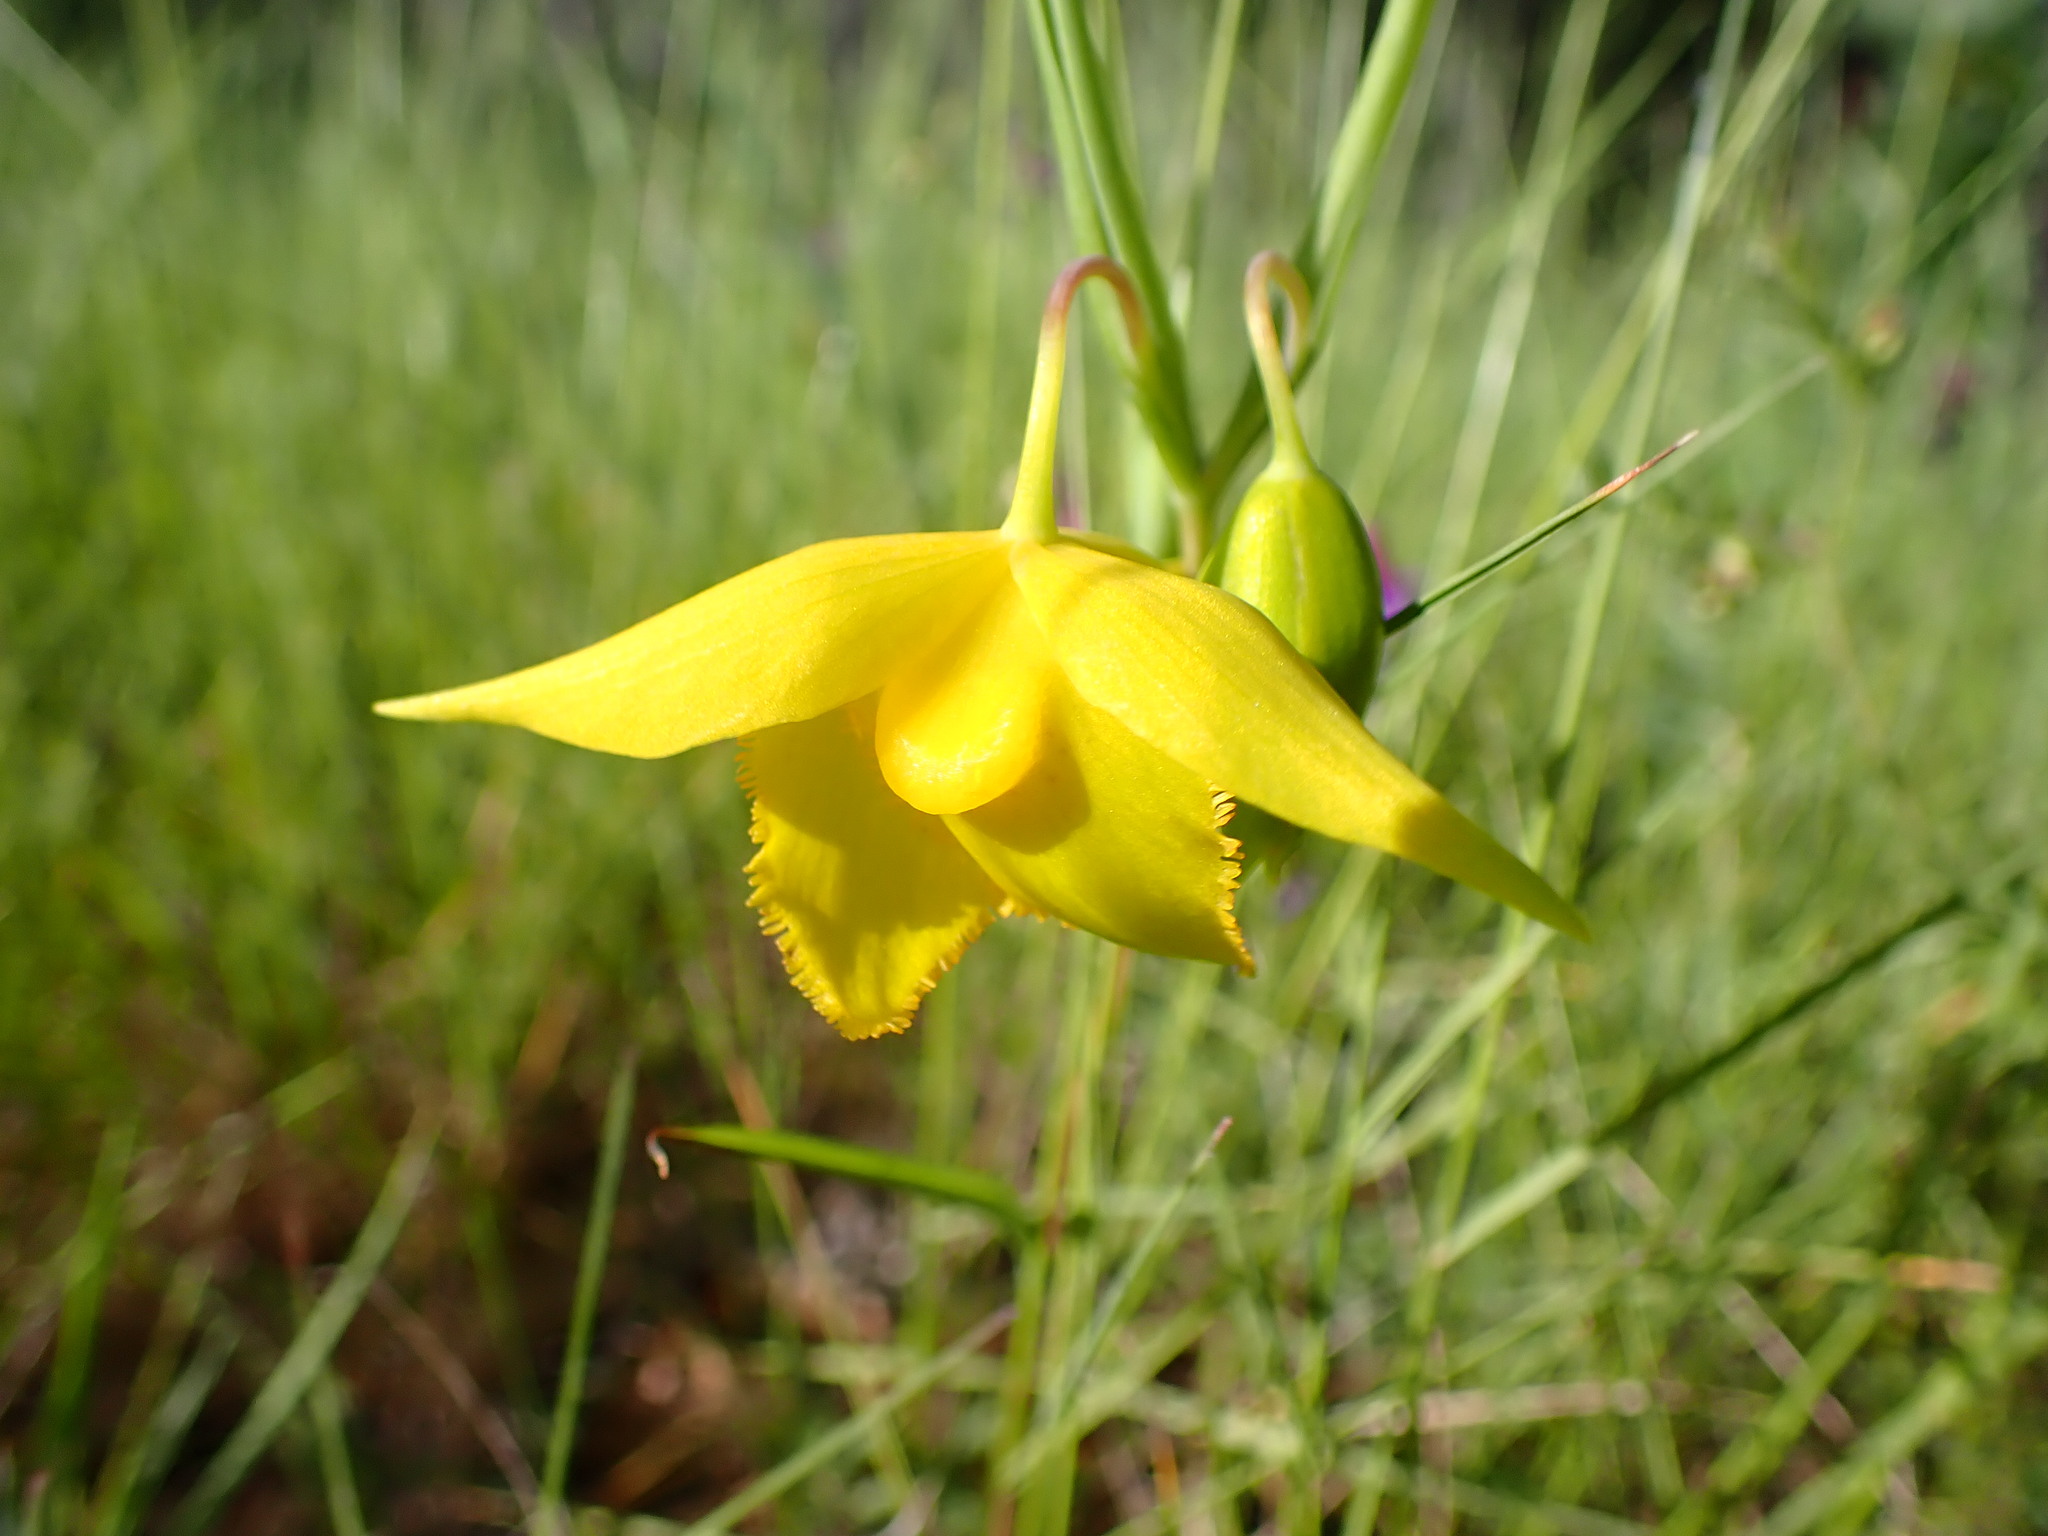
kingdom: Plantae
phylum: Tracheophyta
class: Liliopsida
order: Liliales
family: Liliaceae
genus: Calochortus
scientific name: Calochortus amabilis
